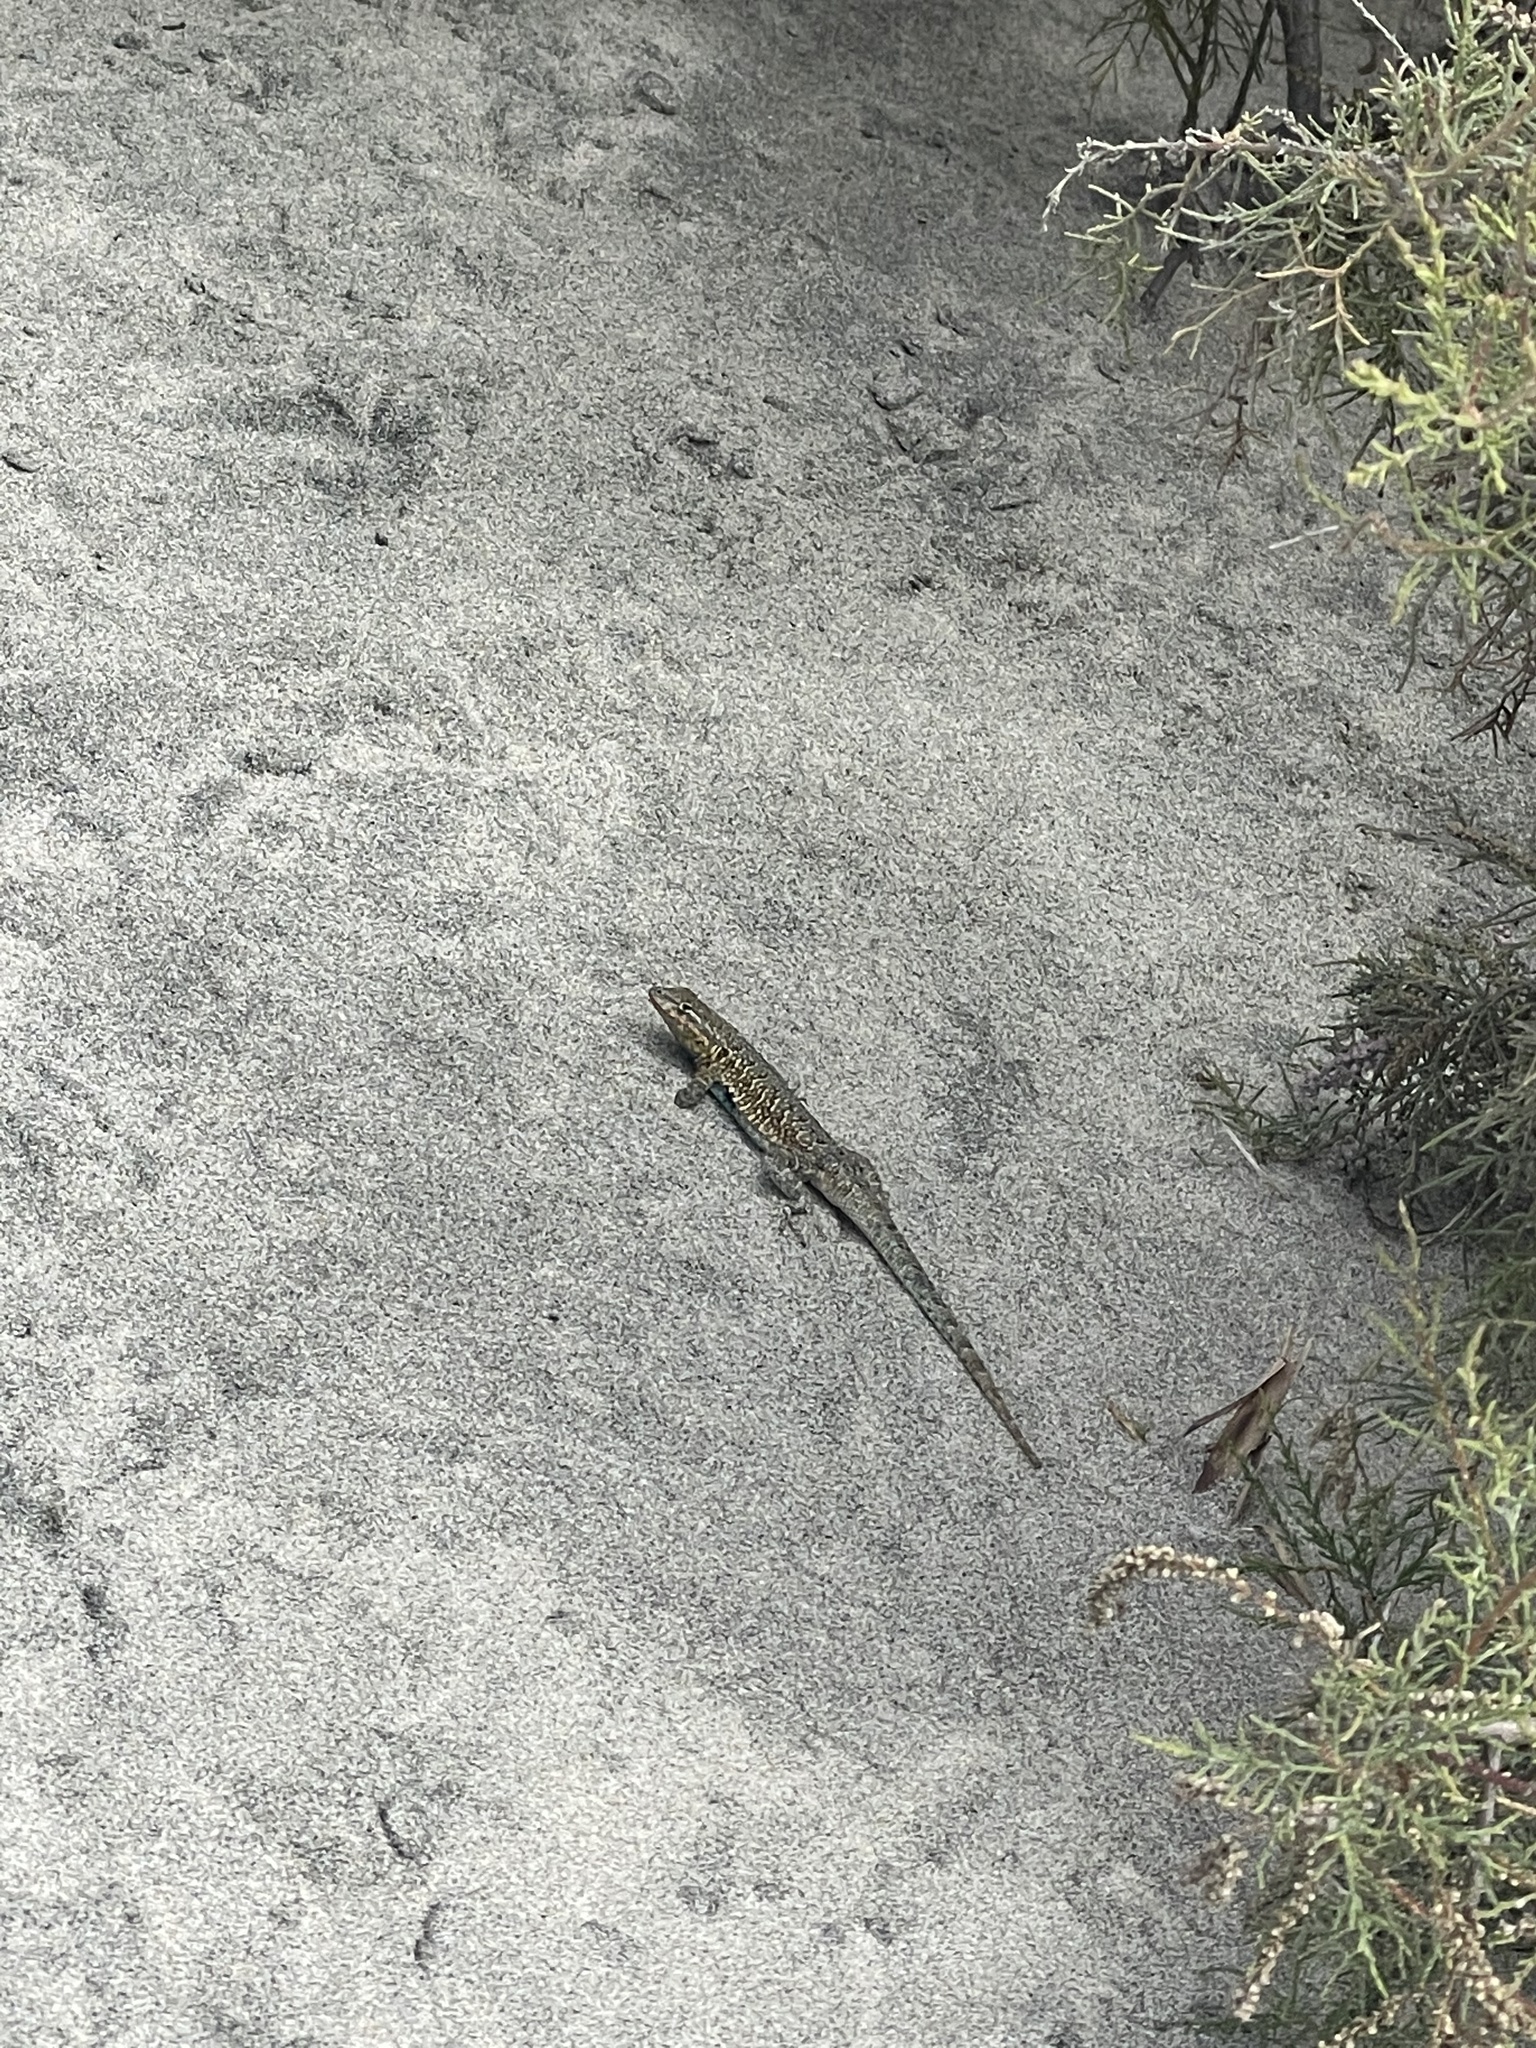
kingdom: Animalia
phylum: Chordata
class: Squamata
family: Phrynosomatidae
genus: Uta
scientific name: Uta stansburiana
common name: Side-blotched lizard
